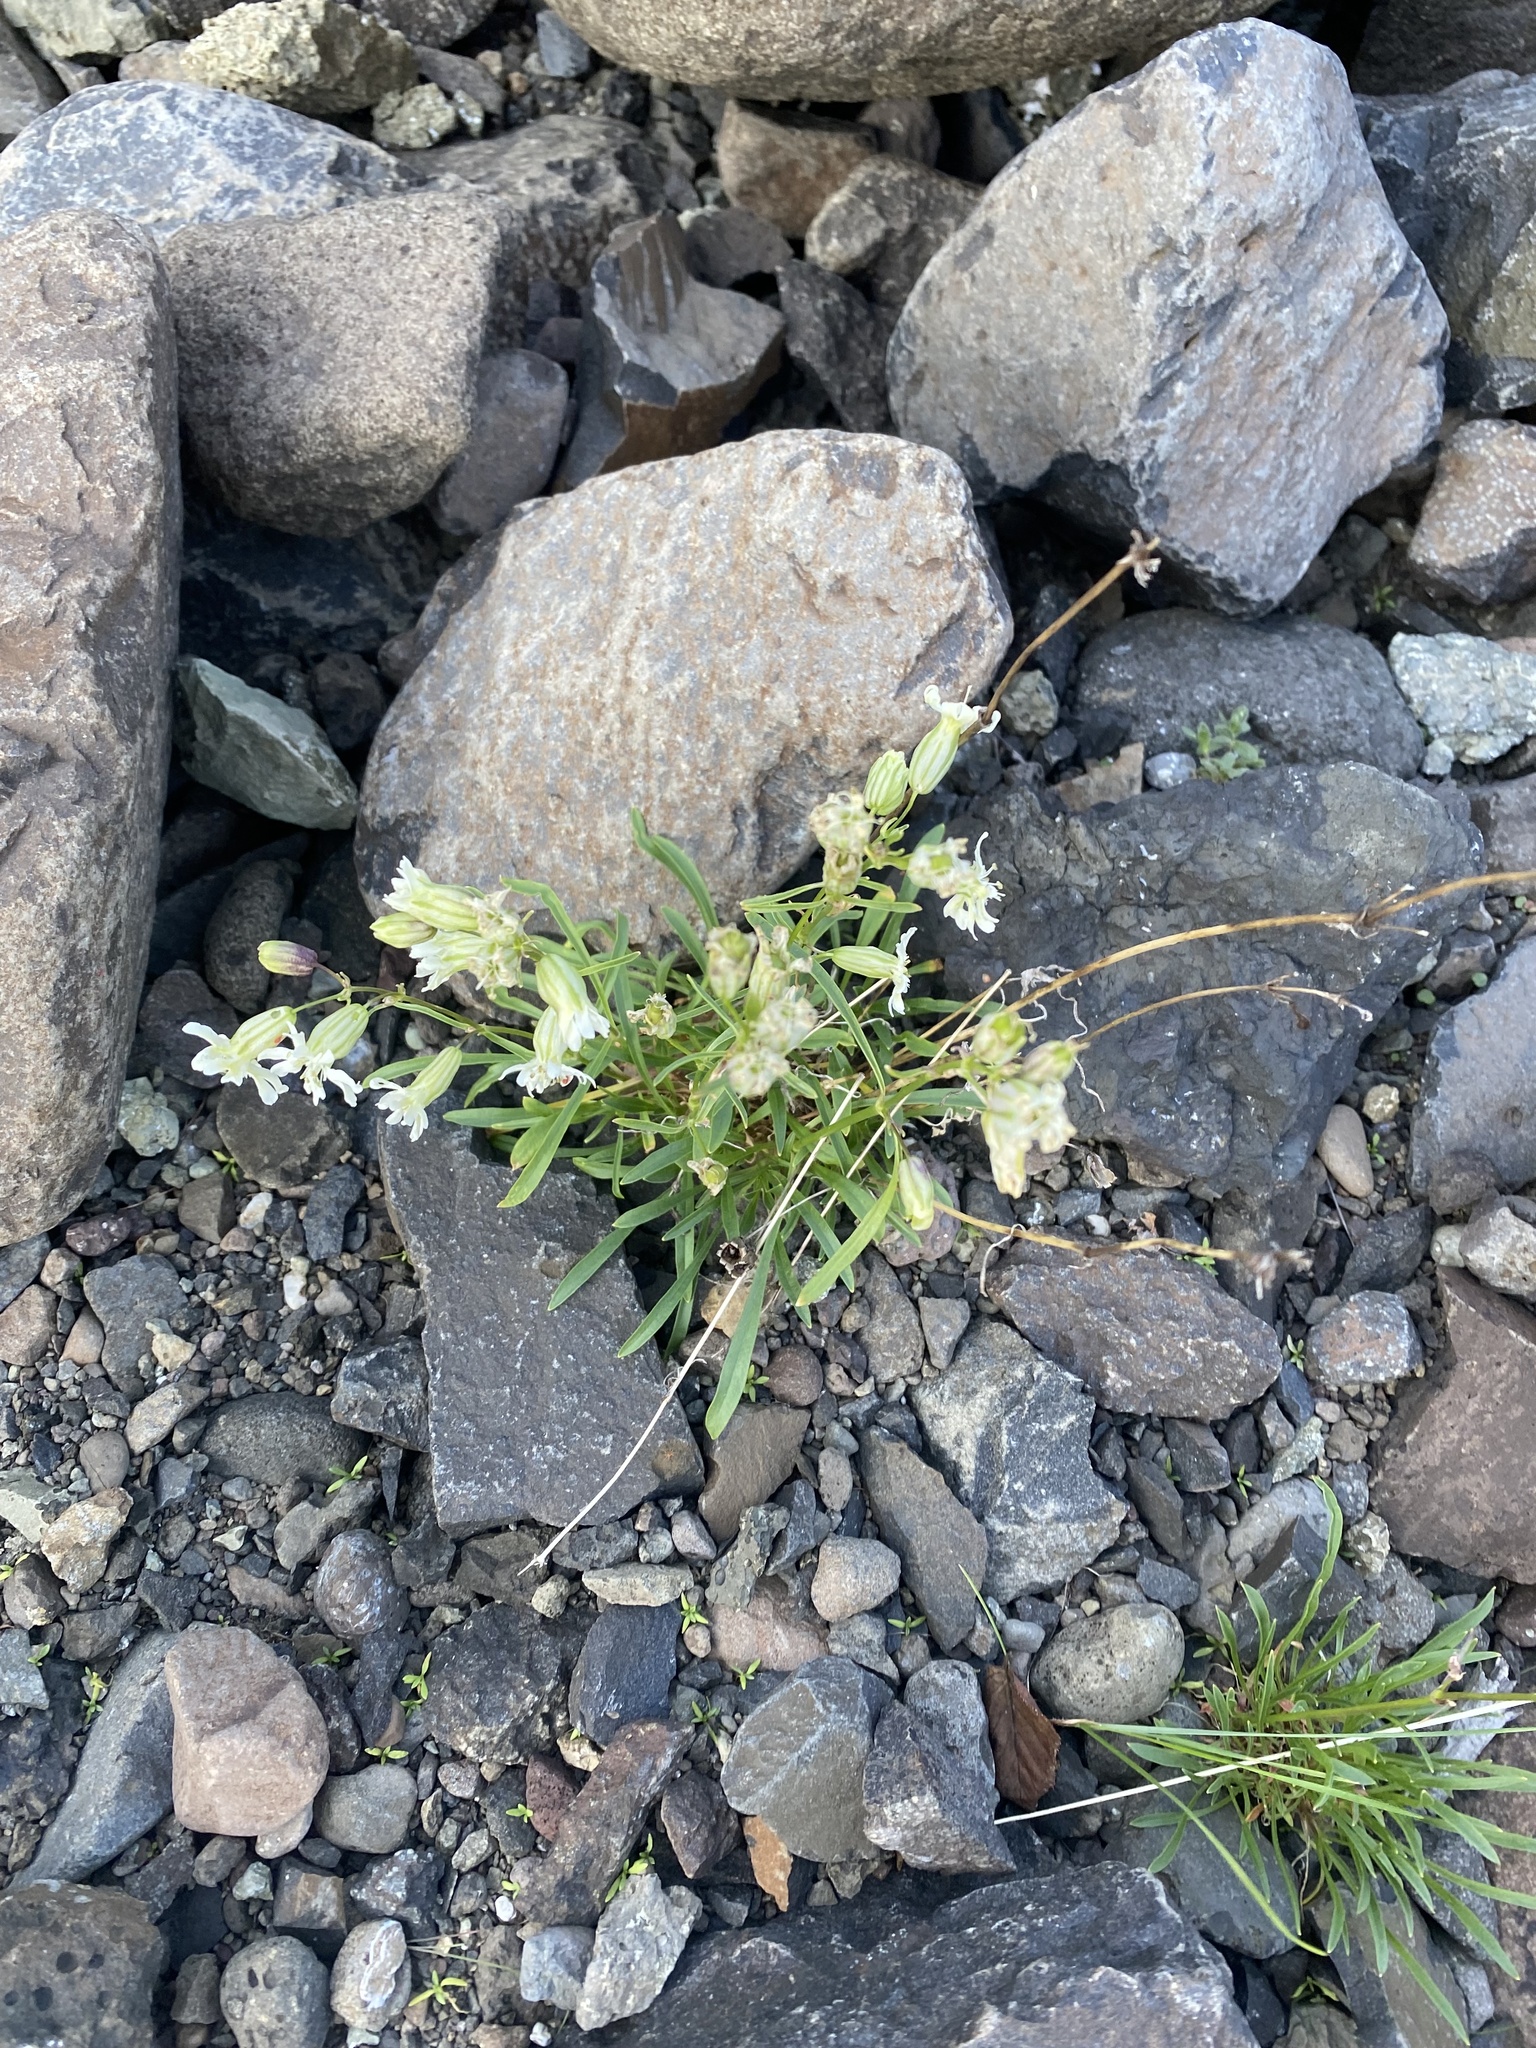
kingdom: Plantae
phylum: Tracheophyta
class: Magnoliopsida
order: Caryophyllales
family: Caryophyllaceae
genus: Silene
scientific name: Silene chamarensis
